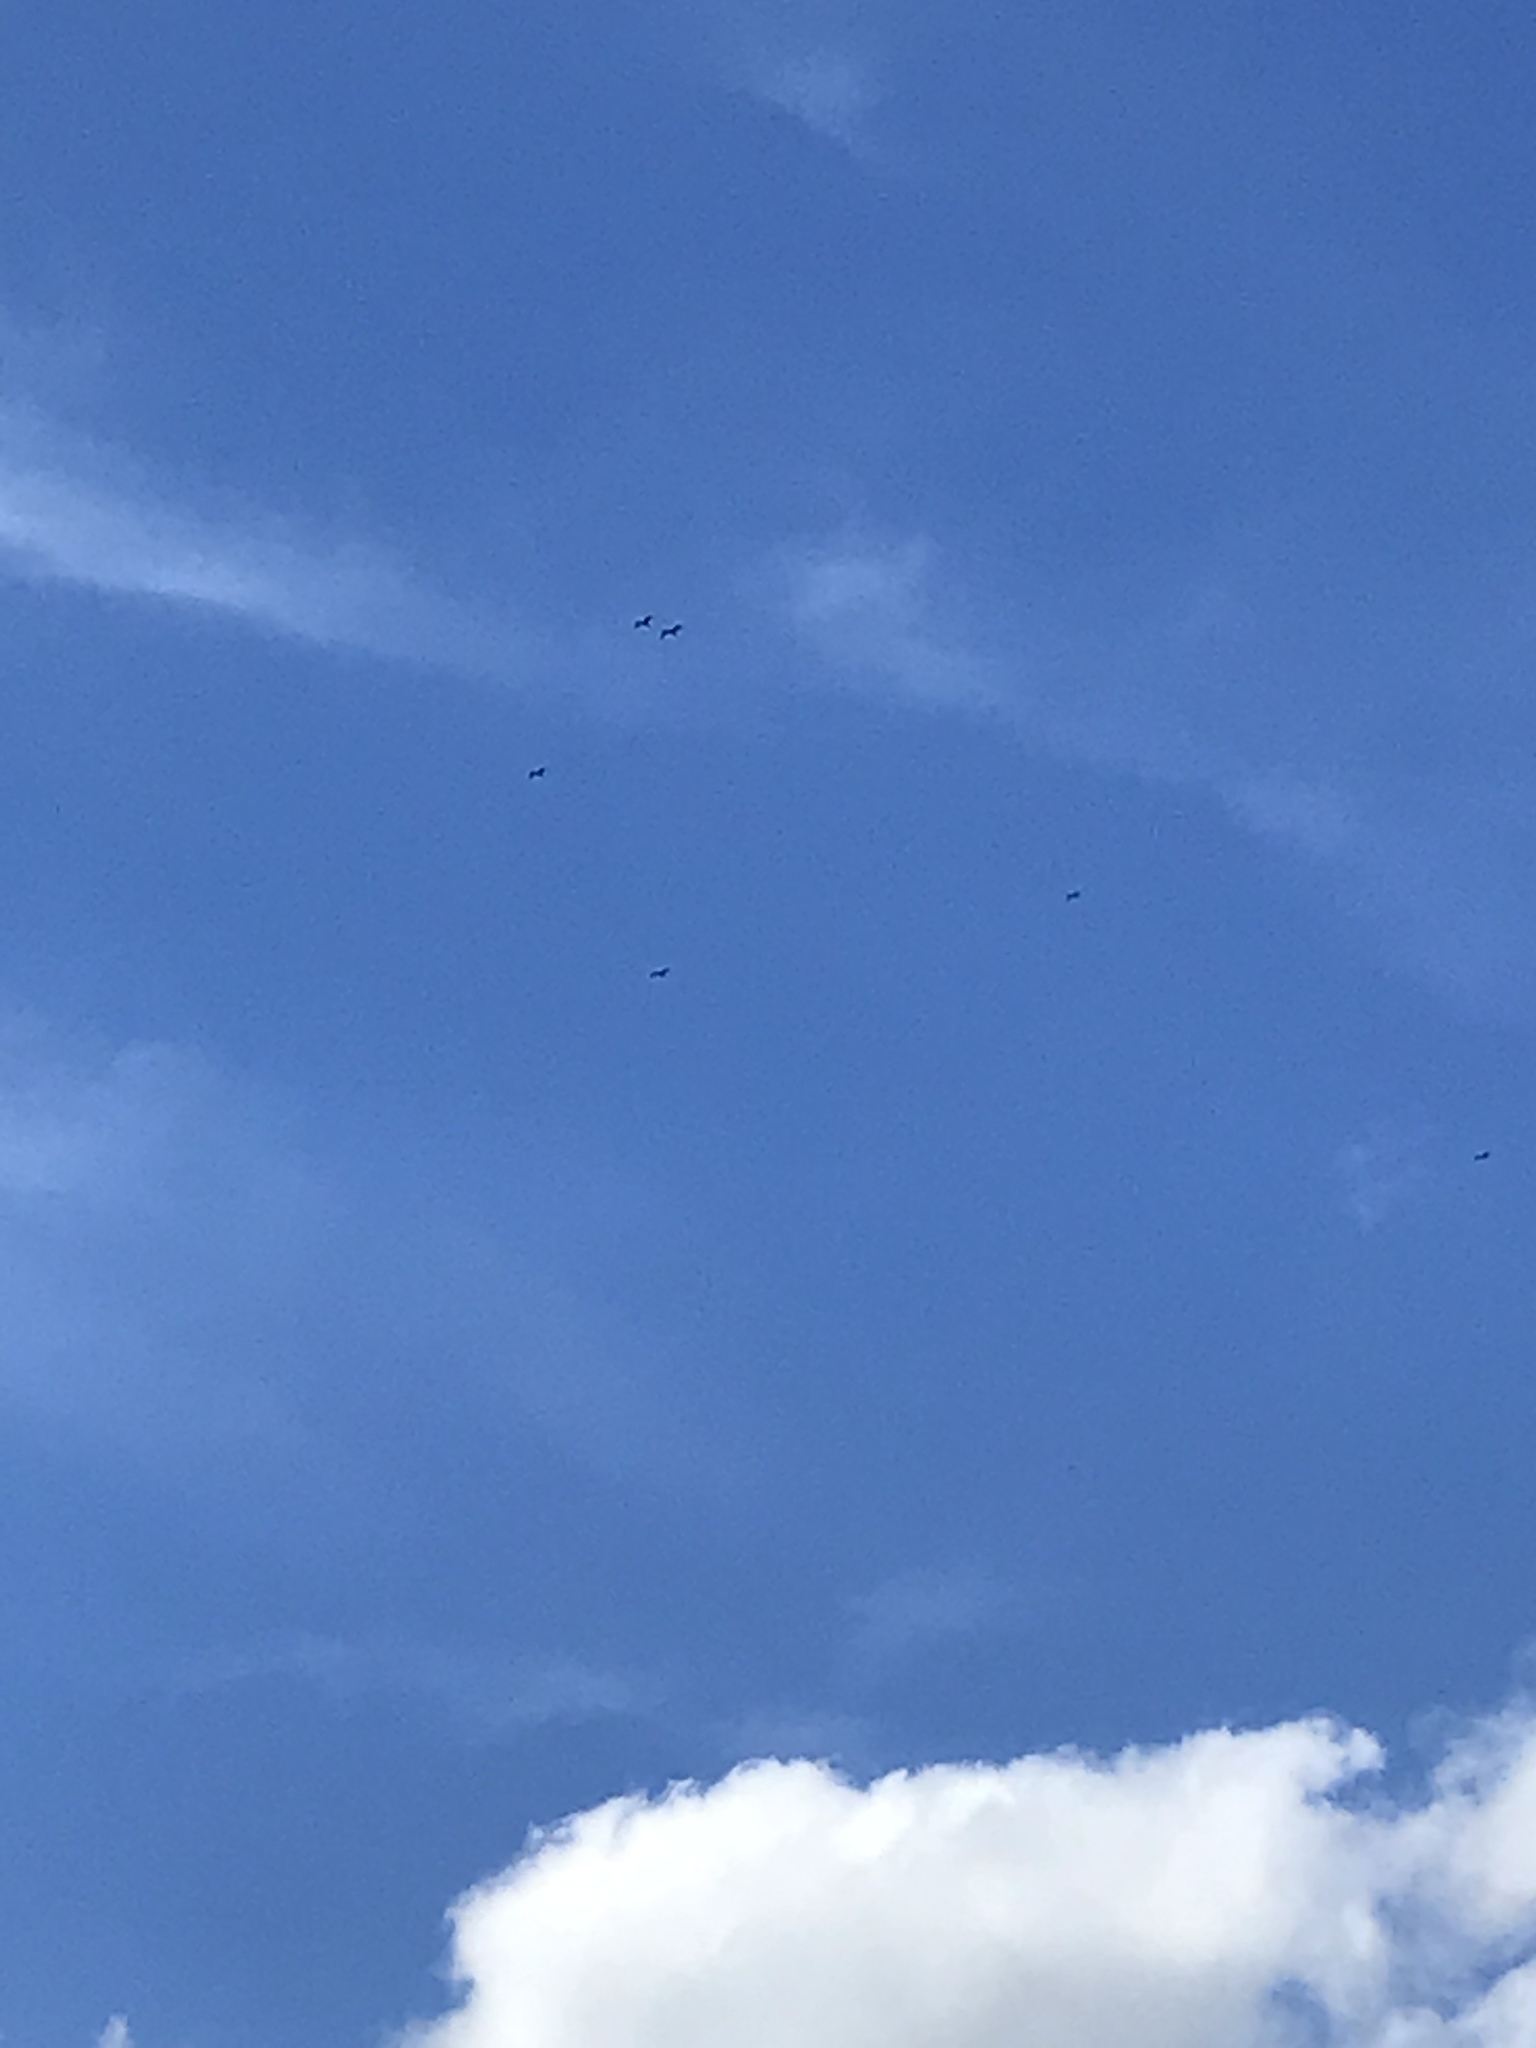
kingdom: Animalia
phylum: Chordata
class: Aves
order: Suliformes
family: Fregatidae
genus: Fregata
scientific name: Fregata magnificens
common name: Magnificent frigatebird
